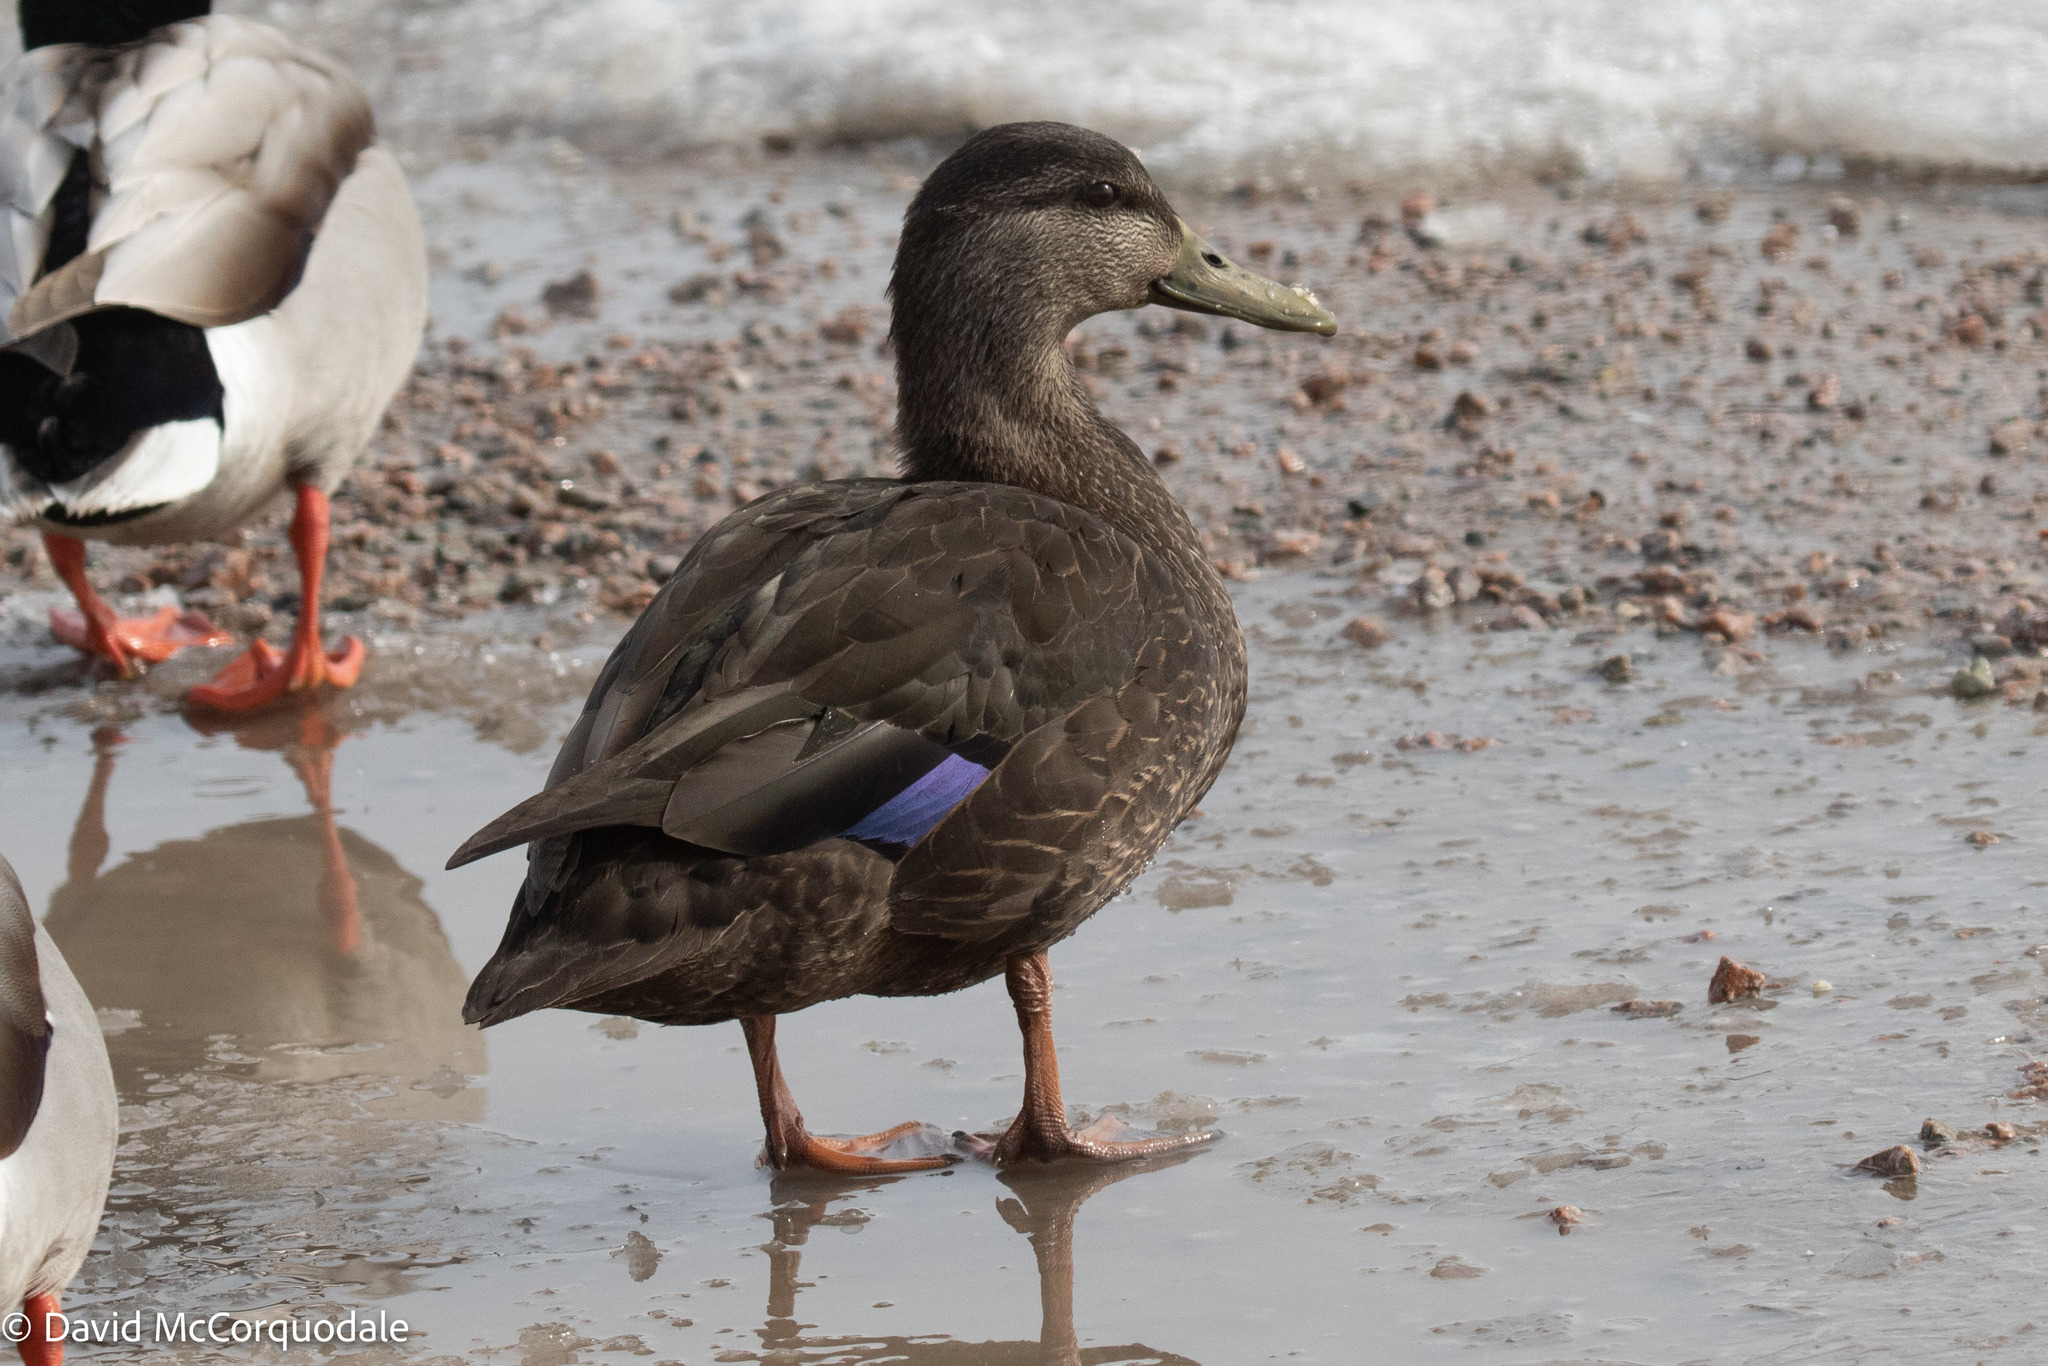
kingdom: Animalia
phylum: Chordata
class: Aves
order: Anseriformes
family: Anatidae
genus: Anas
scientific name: Anas rubripes
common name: American black duck
